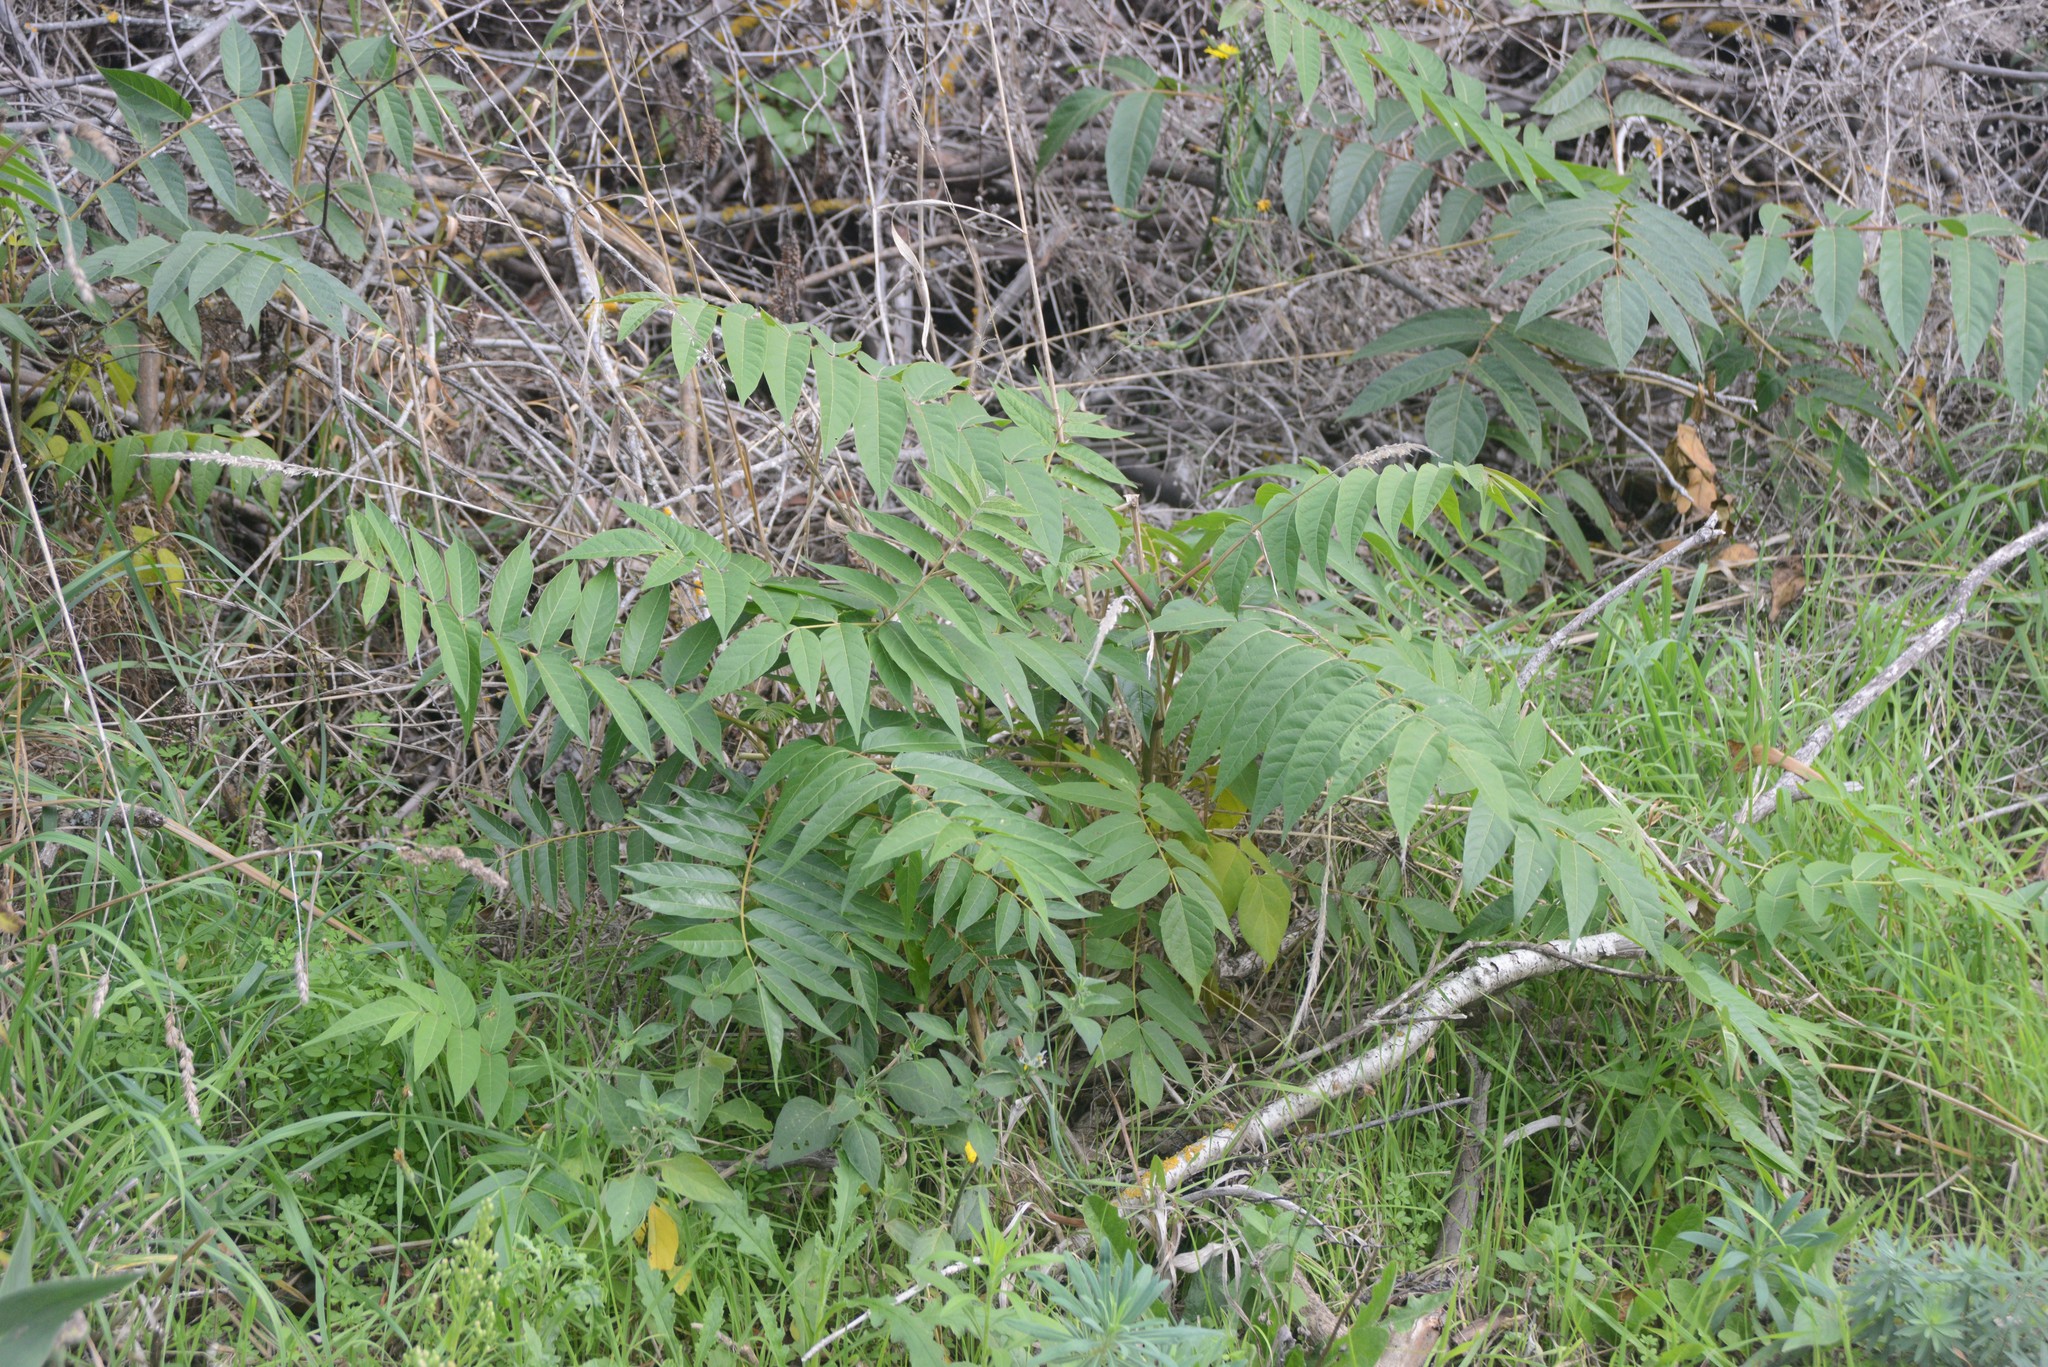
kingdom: Plantae
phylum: Tracheophyta
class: Magnoliopsida
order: Sapindales
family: Simaroubaceae
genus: Ailanthus
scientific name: Ailanthus altissima
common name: Tree-of-heaven
